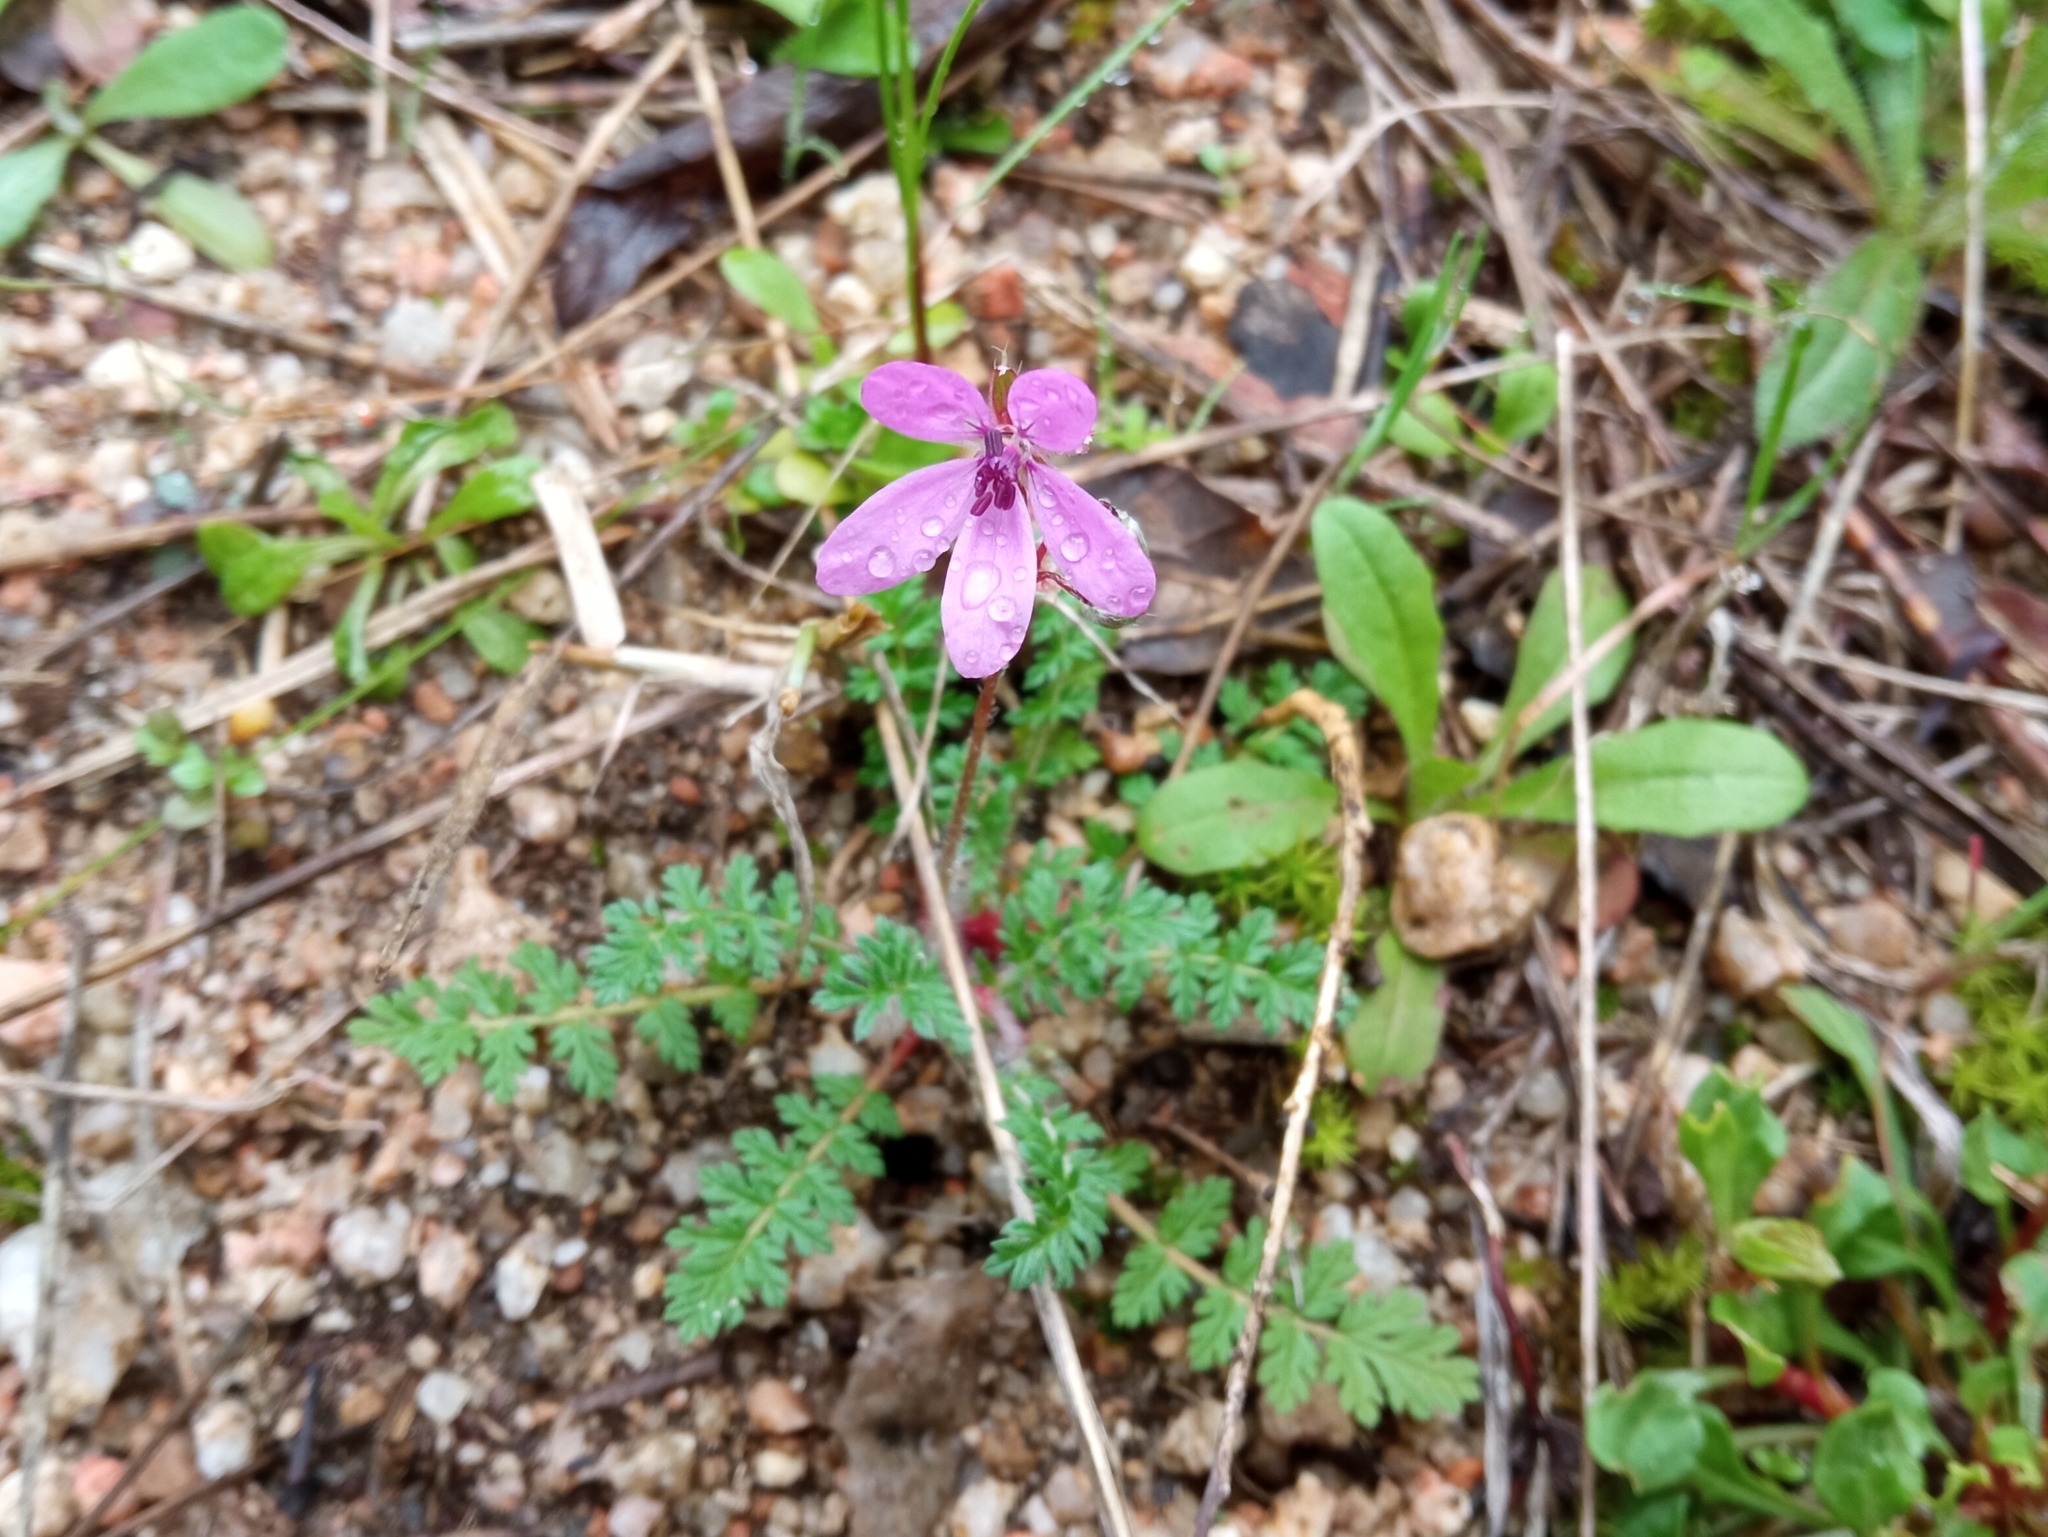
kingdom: Plantae
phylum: Tracheophyta
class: Magnoliopsida
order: Geraniales
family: Geraniaceae
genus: Erodium
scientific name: Erodium cicutarium
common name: Common stork's-bill
